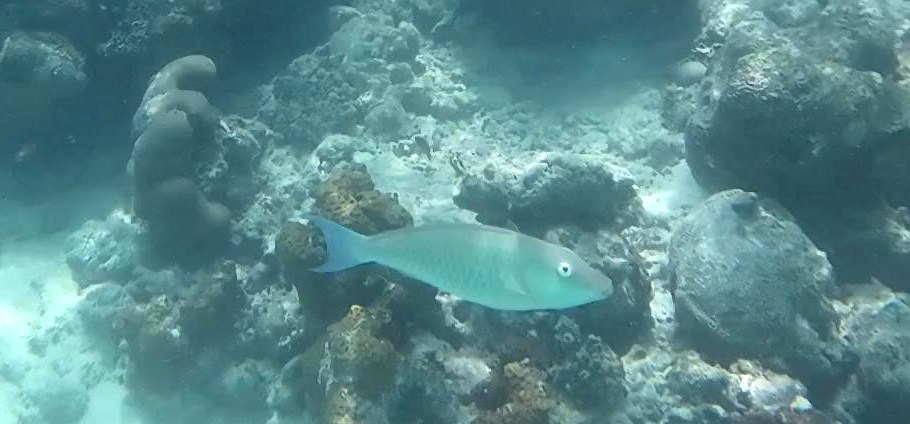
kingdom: Animalia
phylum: Chordata
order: Perciformes
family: Scaridae
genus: Hipposcarus
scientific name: Hipposcarus harid
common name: Candelamoa parrotfish
